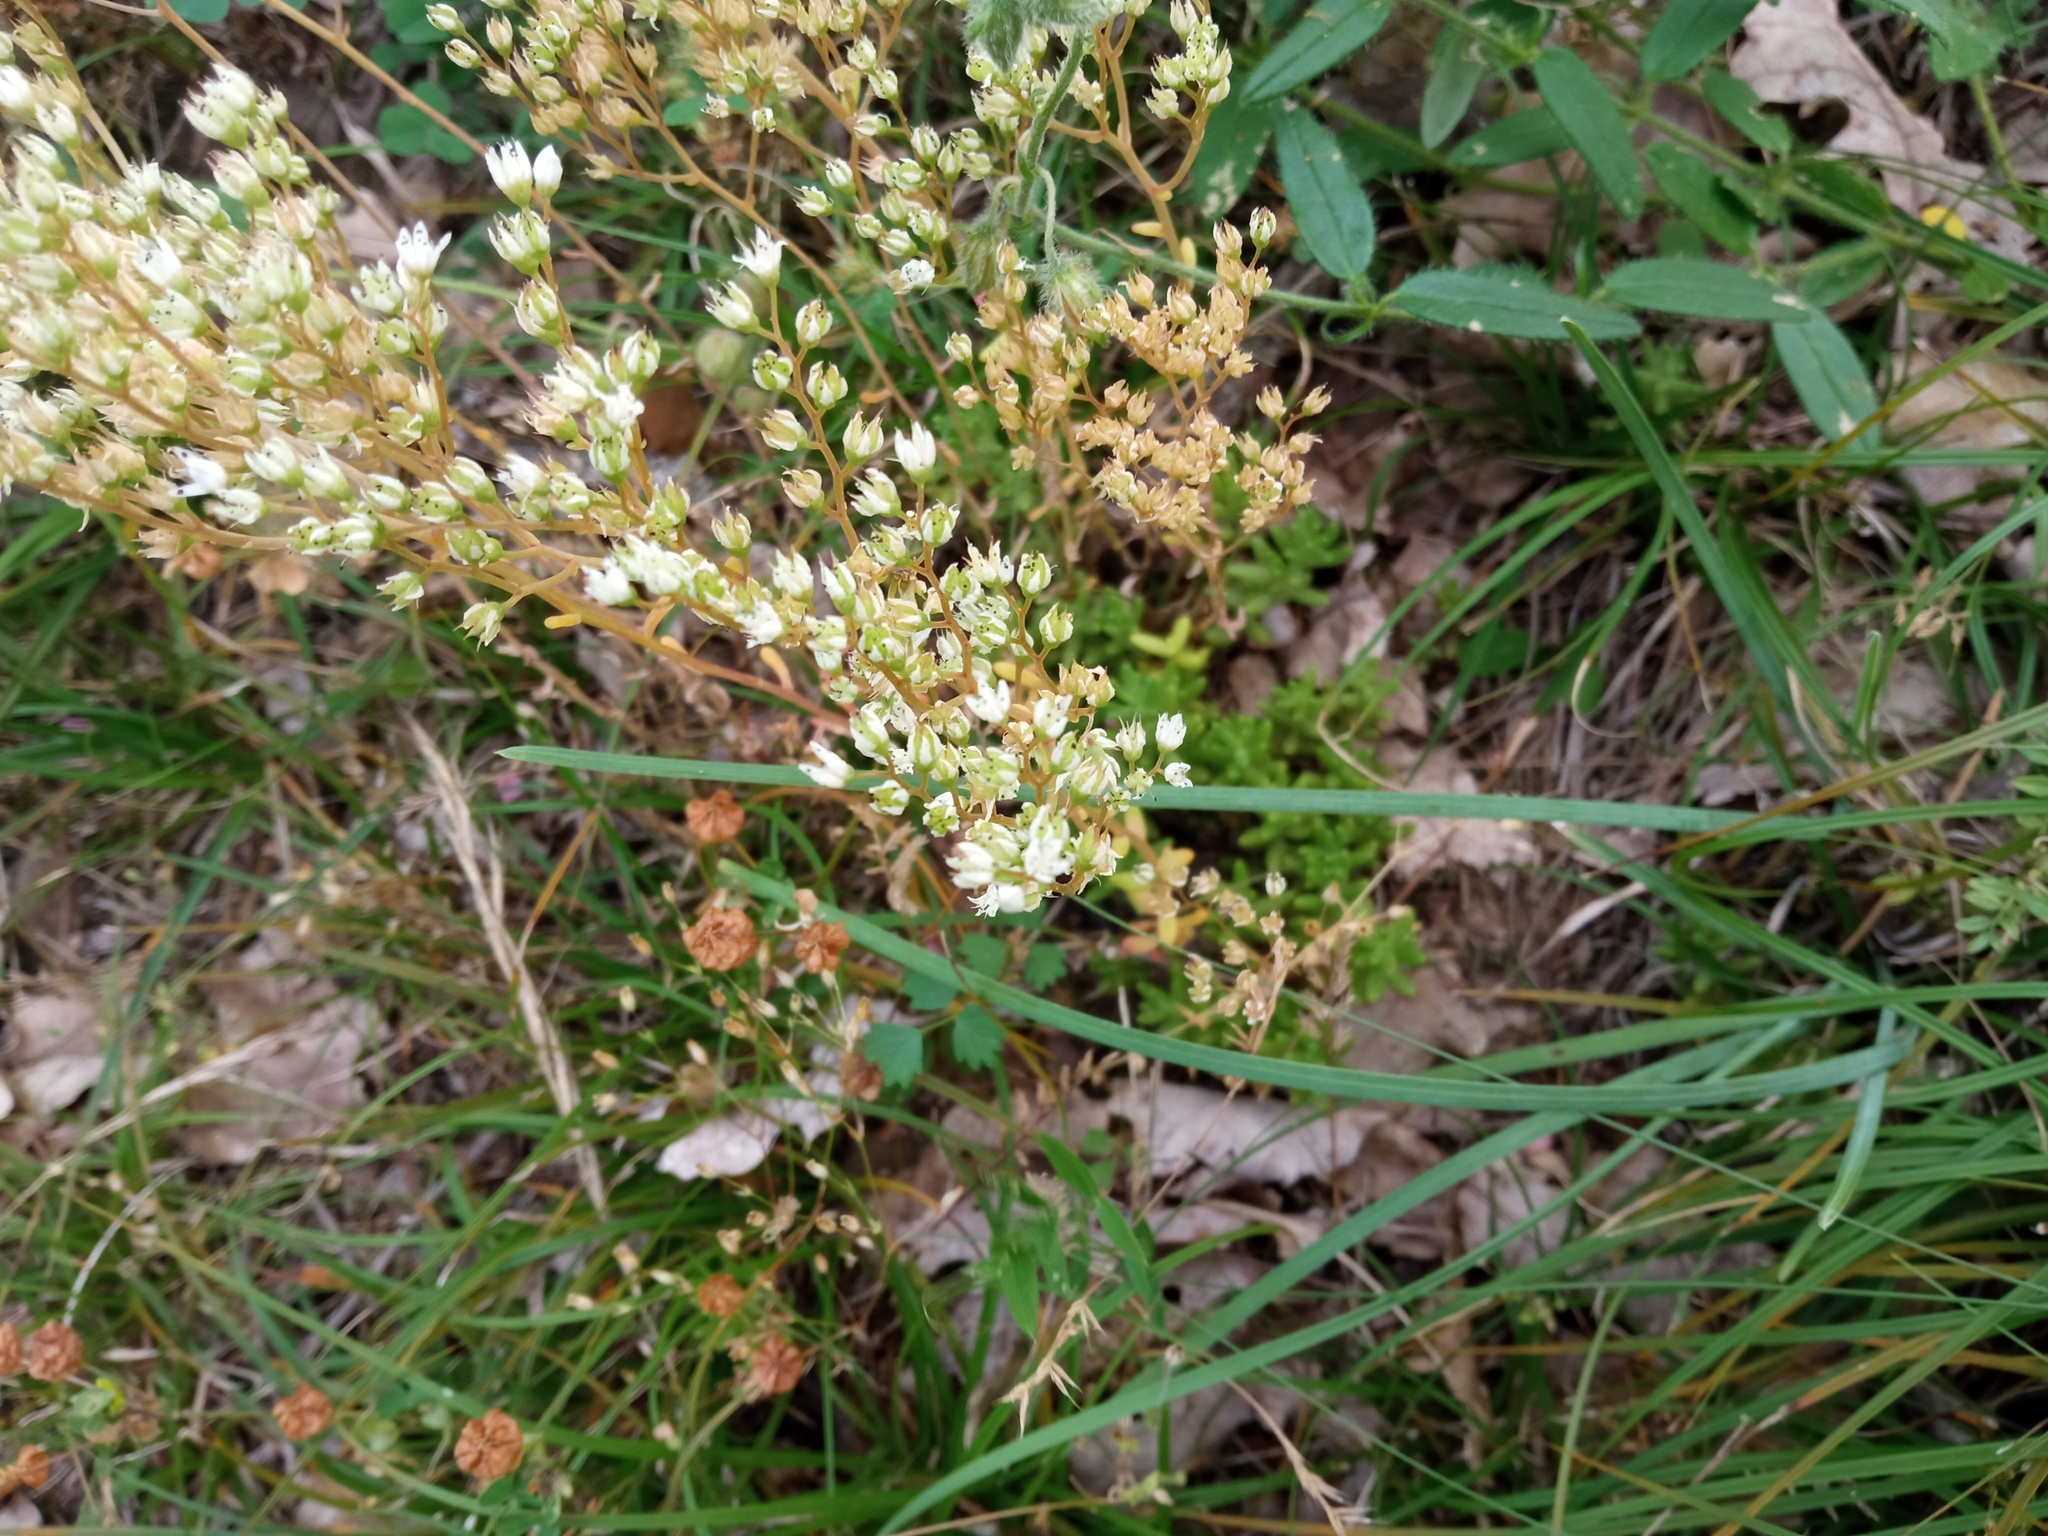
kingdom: Plantae
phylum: Tracheophyta
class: Magnoliopsida
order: Saxifragales
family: Crassulaceae
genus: Sedum
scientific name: Sedum album
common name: White stonecrop
